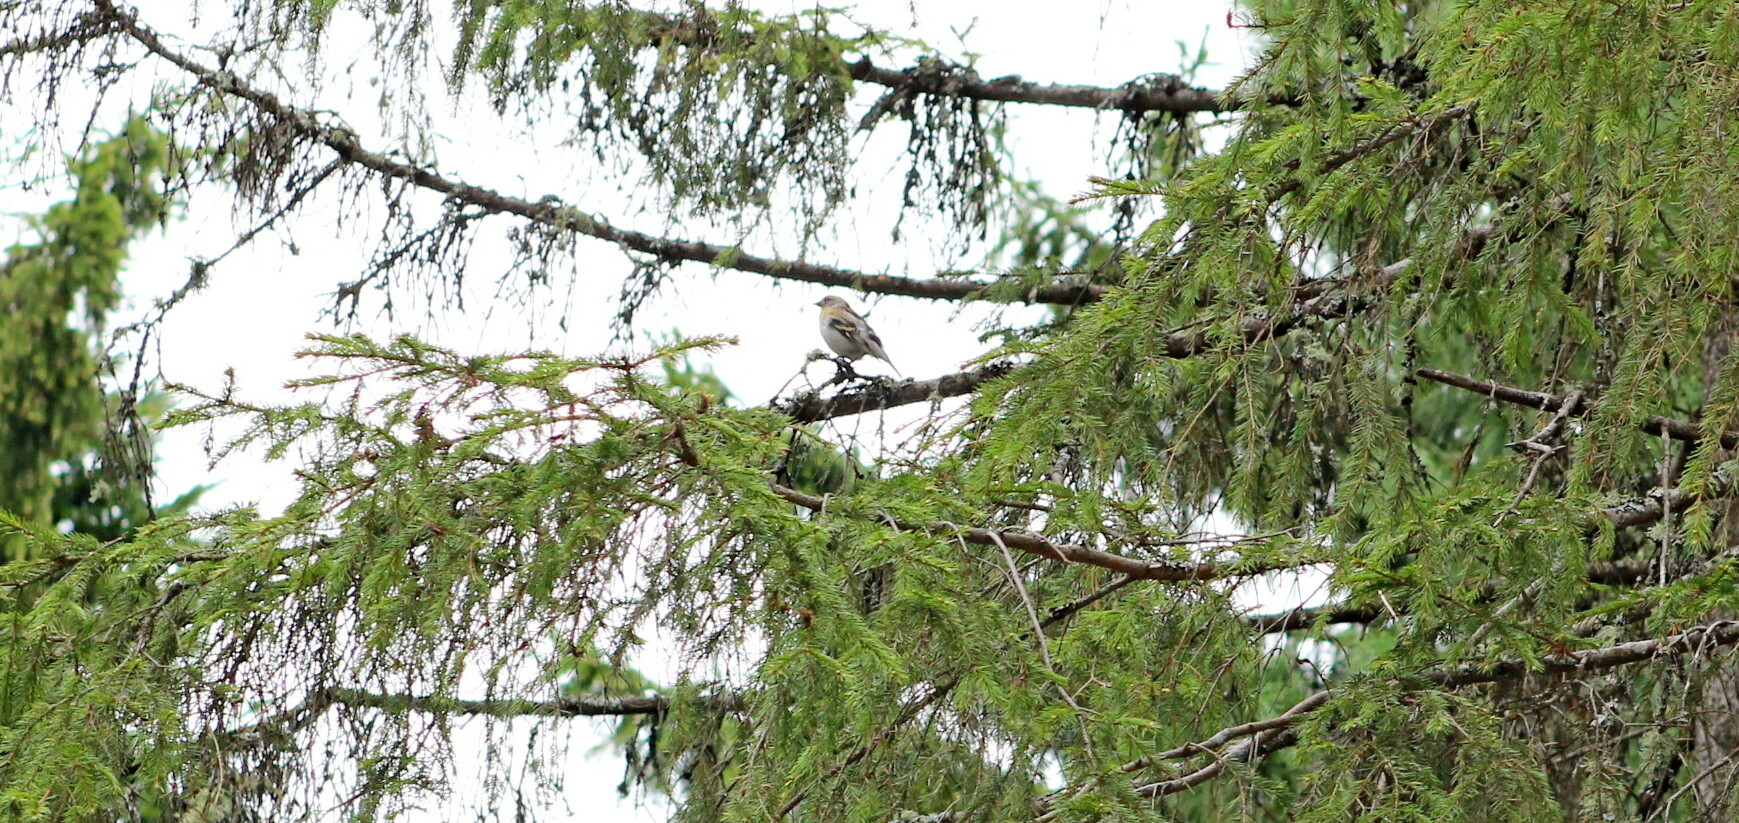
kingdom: Animalia
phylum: Chordata
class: Aves
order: Passeriformes
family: Fringillidae
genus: Fringilla
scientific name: Fringilla montifringilla
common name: Brambling
